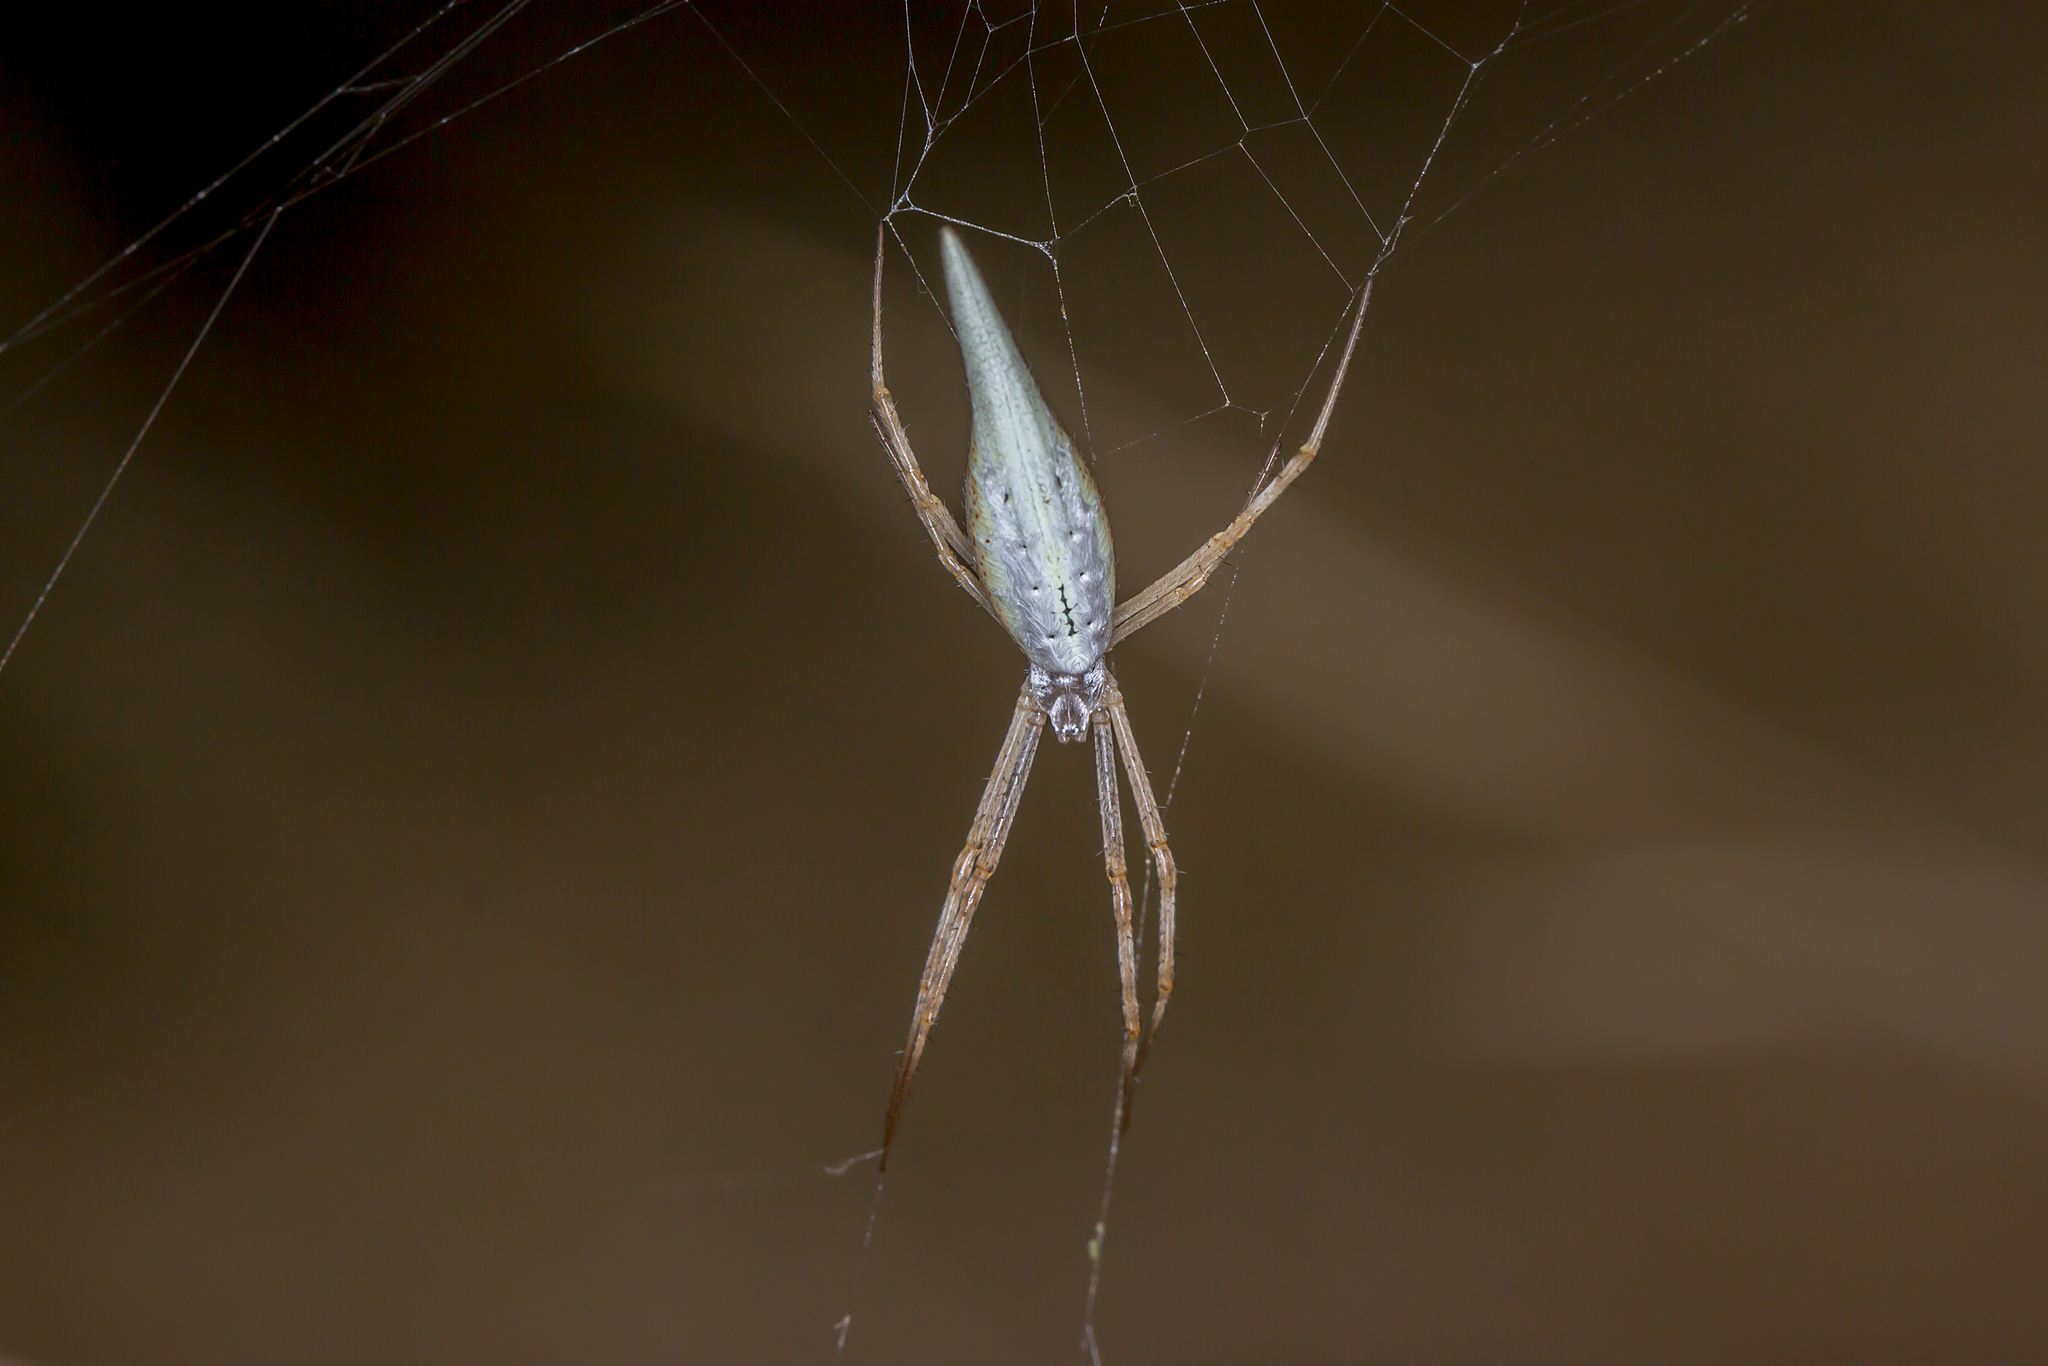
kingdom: Animalia
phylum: Arthropoda
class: Arachnida
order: Araneae
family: Araneidae
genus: Argiope
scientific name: Argiope protensa
